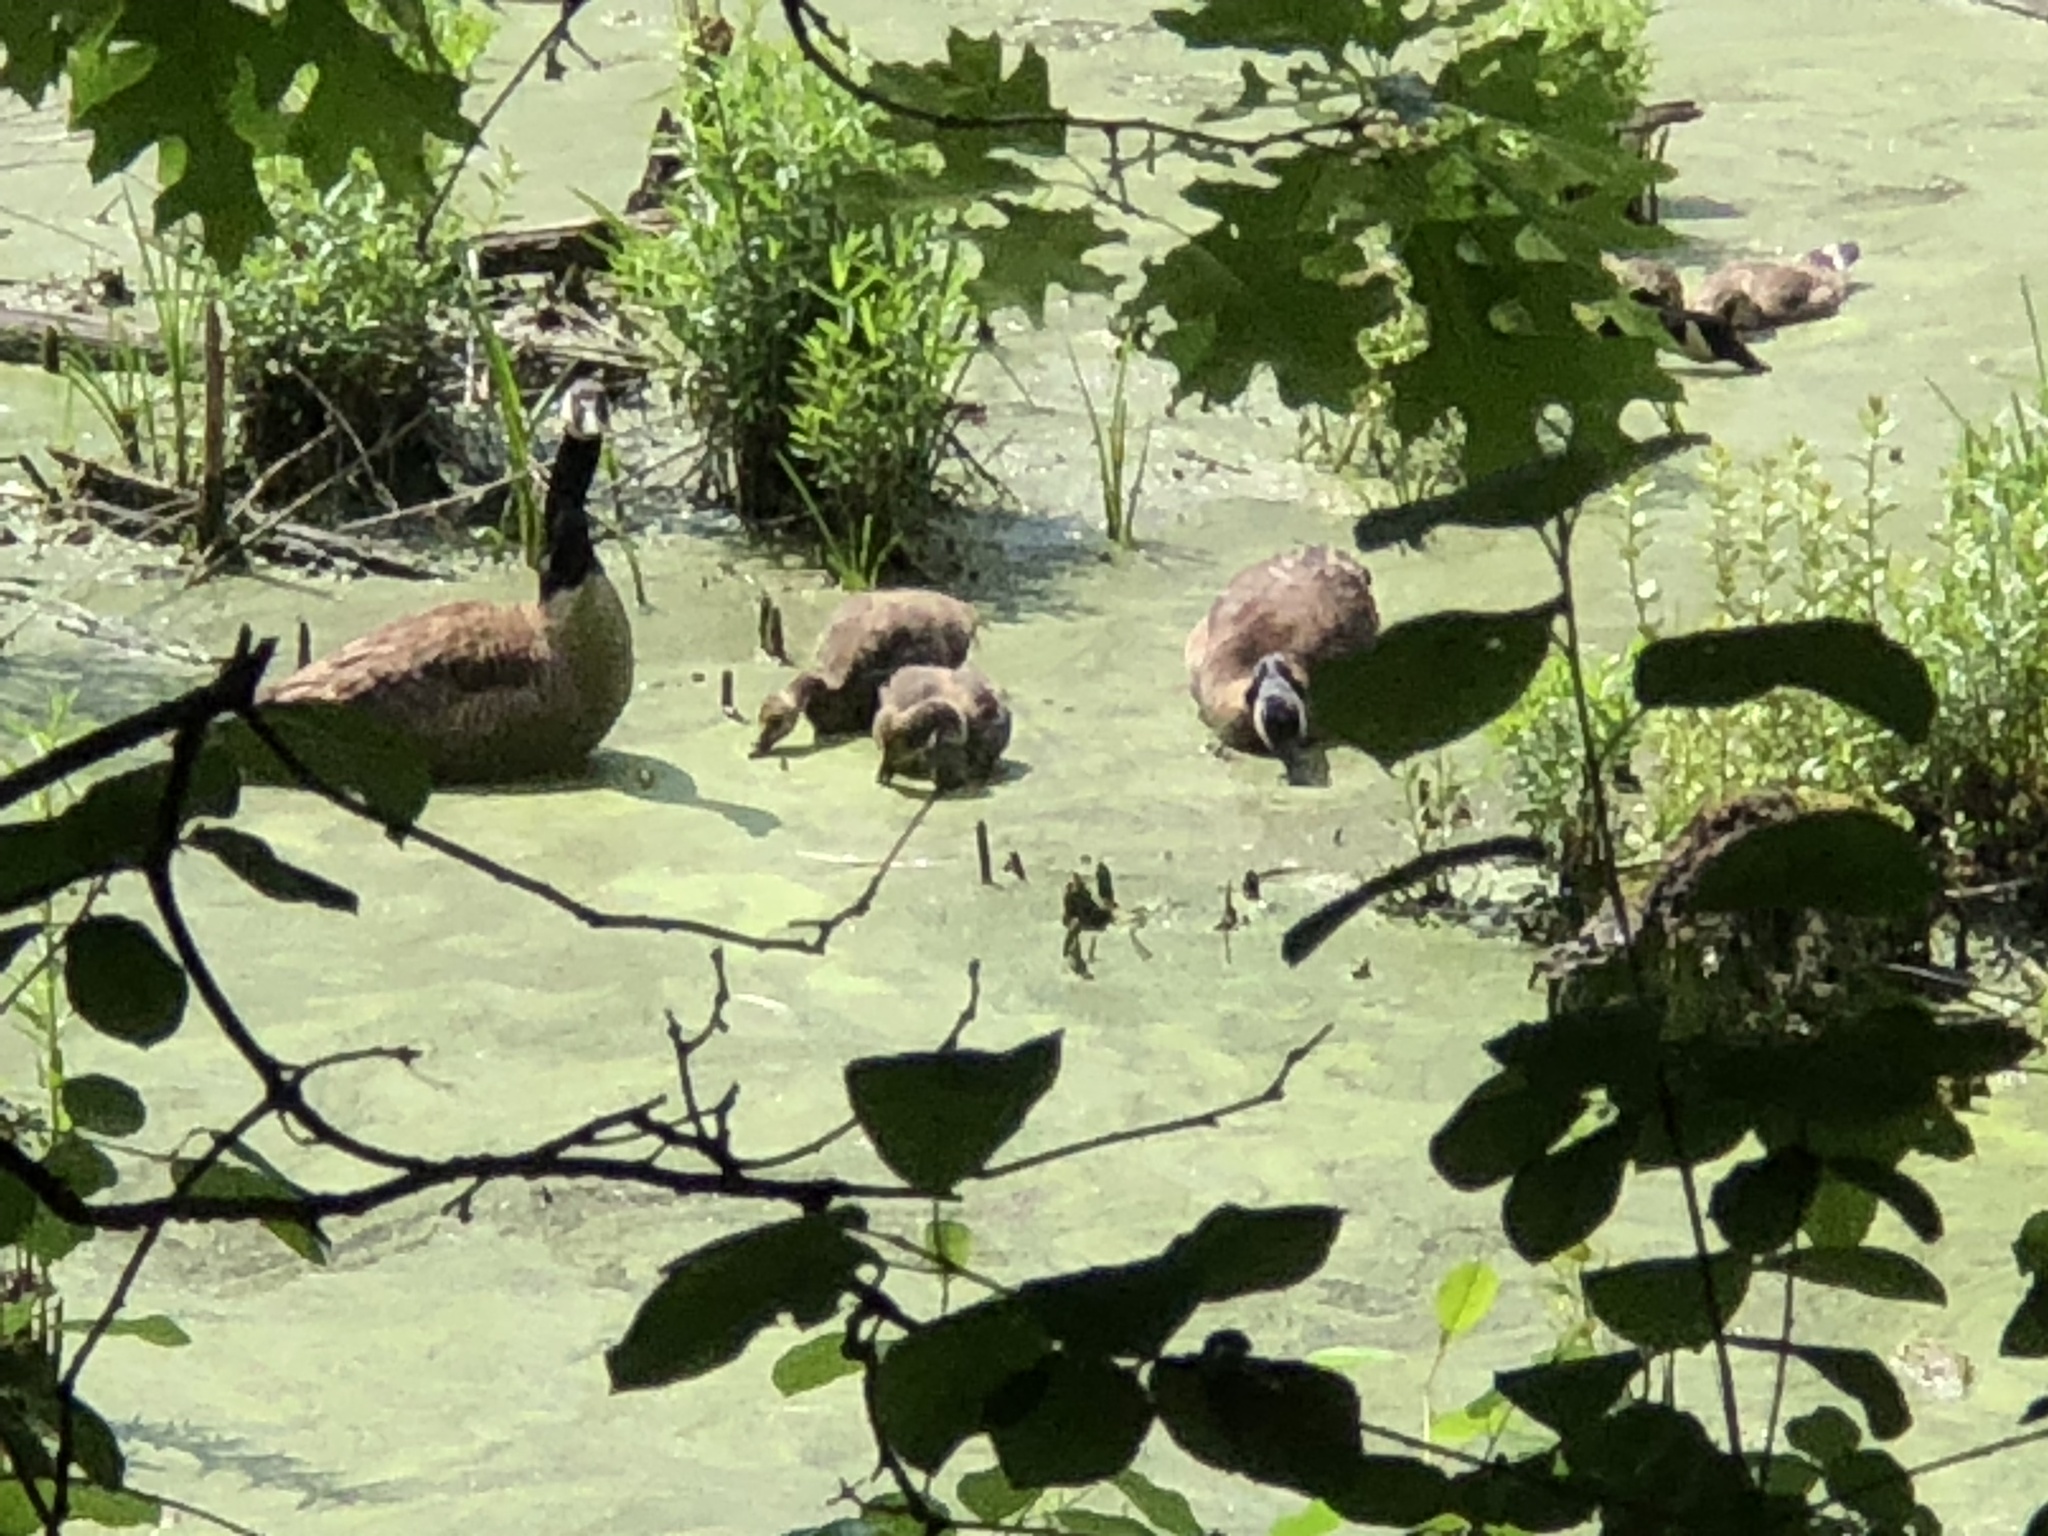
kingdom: Animalia
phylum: Chordata
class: Aves
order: Anseriformes
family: Anatidae
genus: Branta
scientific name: Branta canadensis
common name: Canada goose
